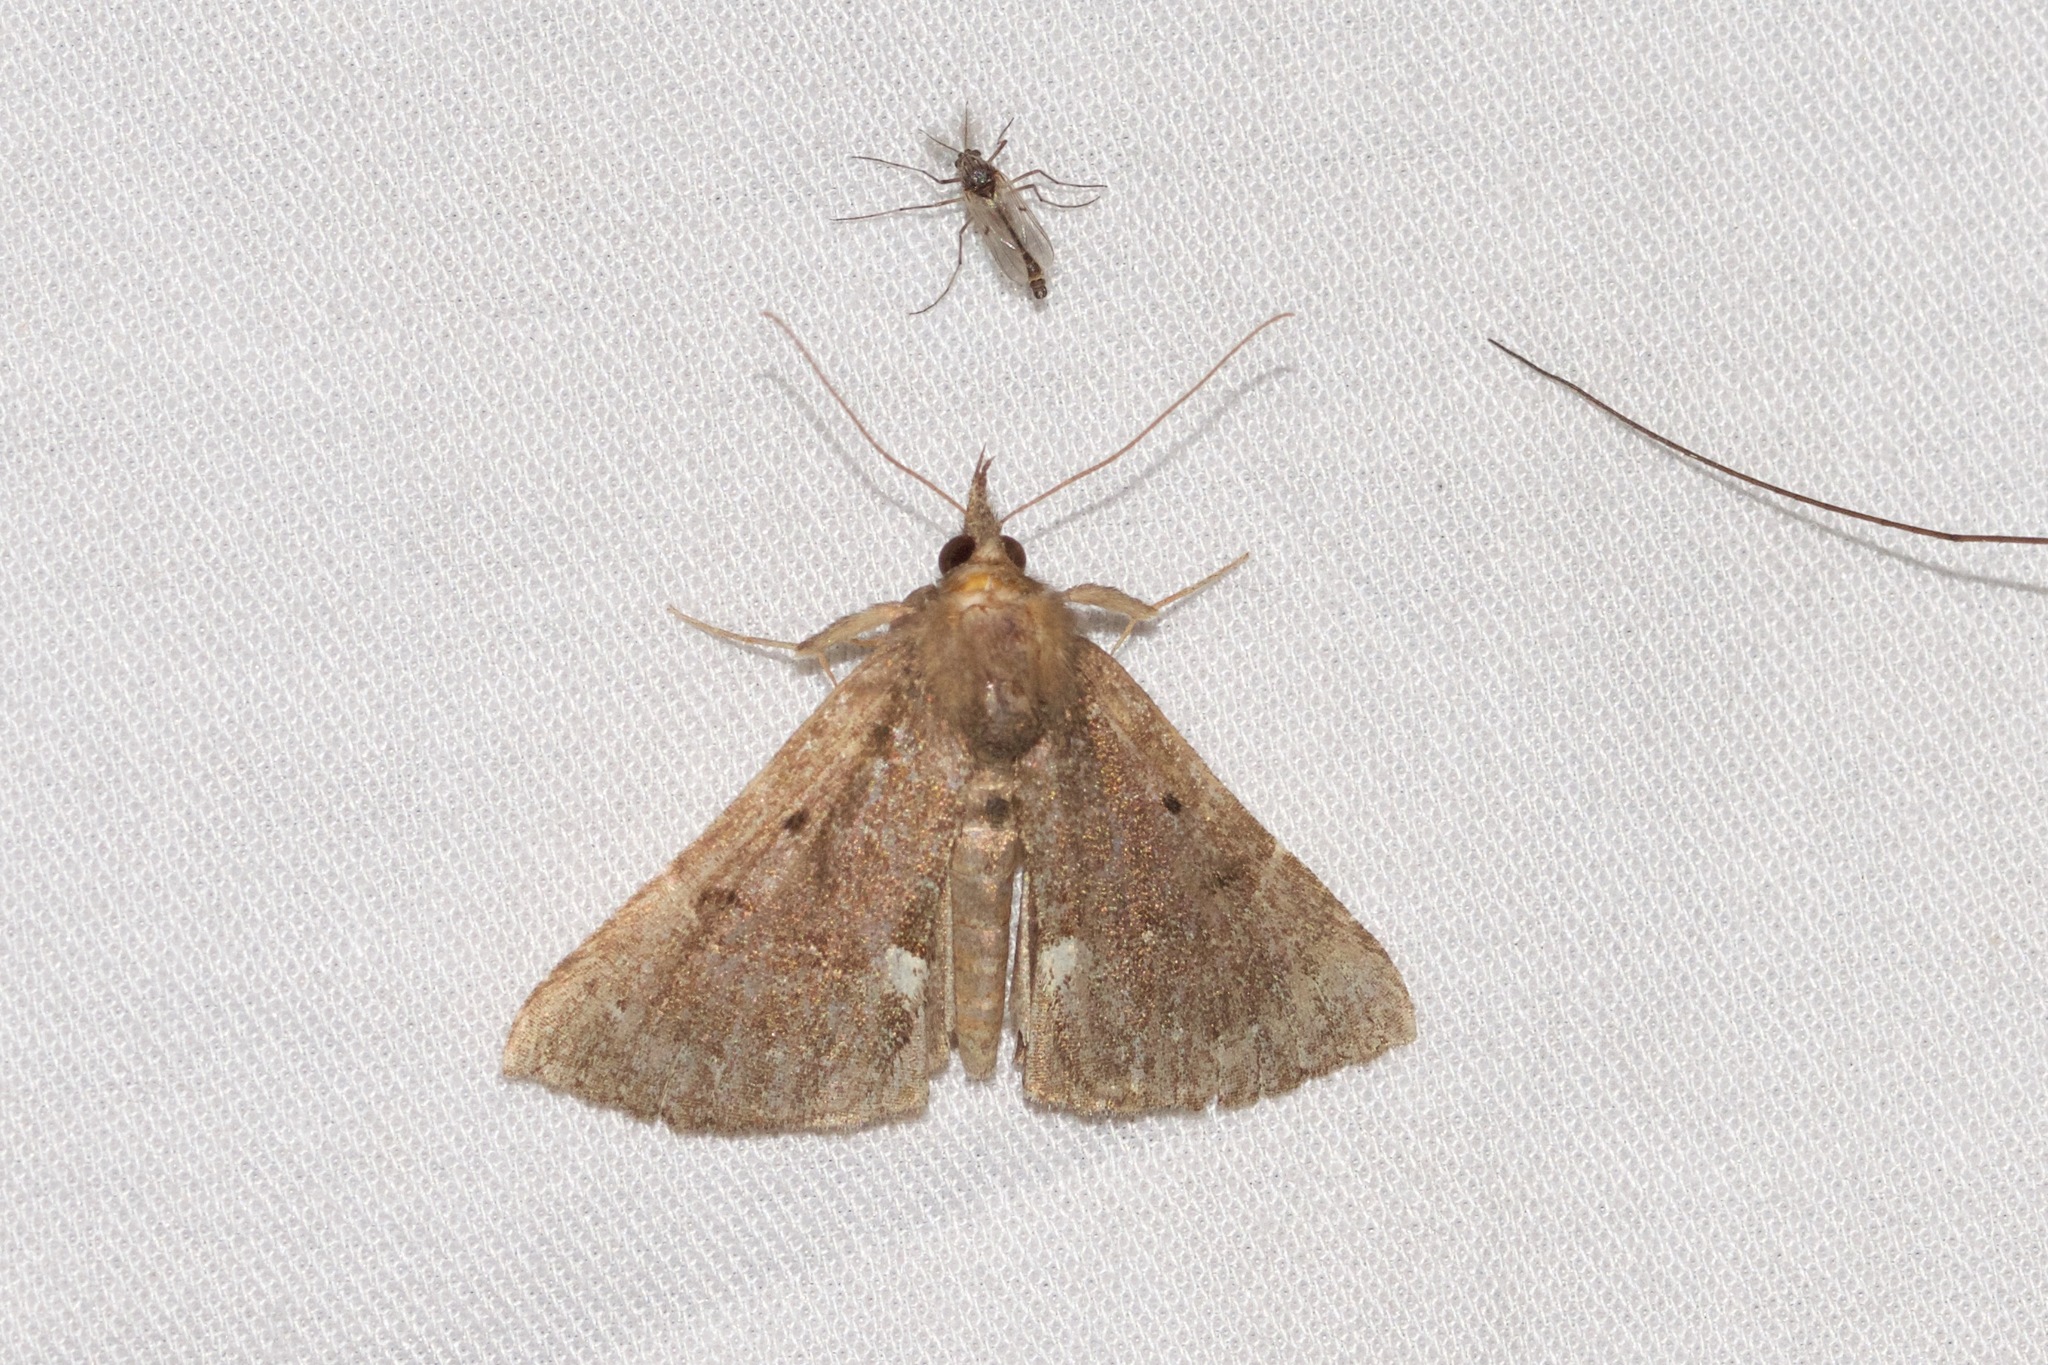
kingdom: Animalia
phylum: Arthropoda
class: Insecta
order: Lepidoptera
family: Erebidae
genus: Hypena
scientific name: Hypena bijugalis
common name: Dimorphic bomolocha moth
